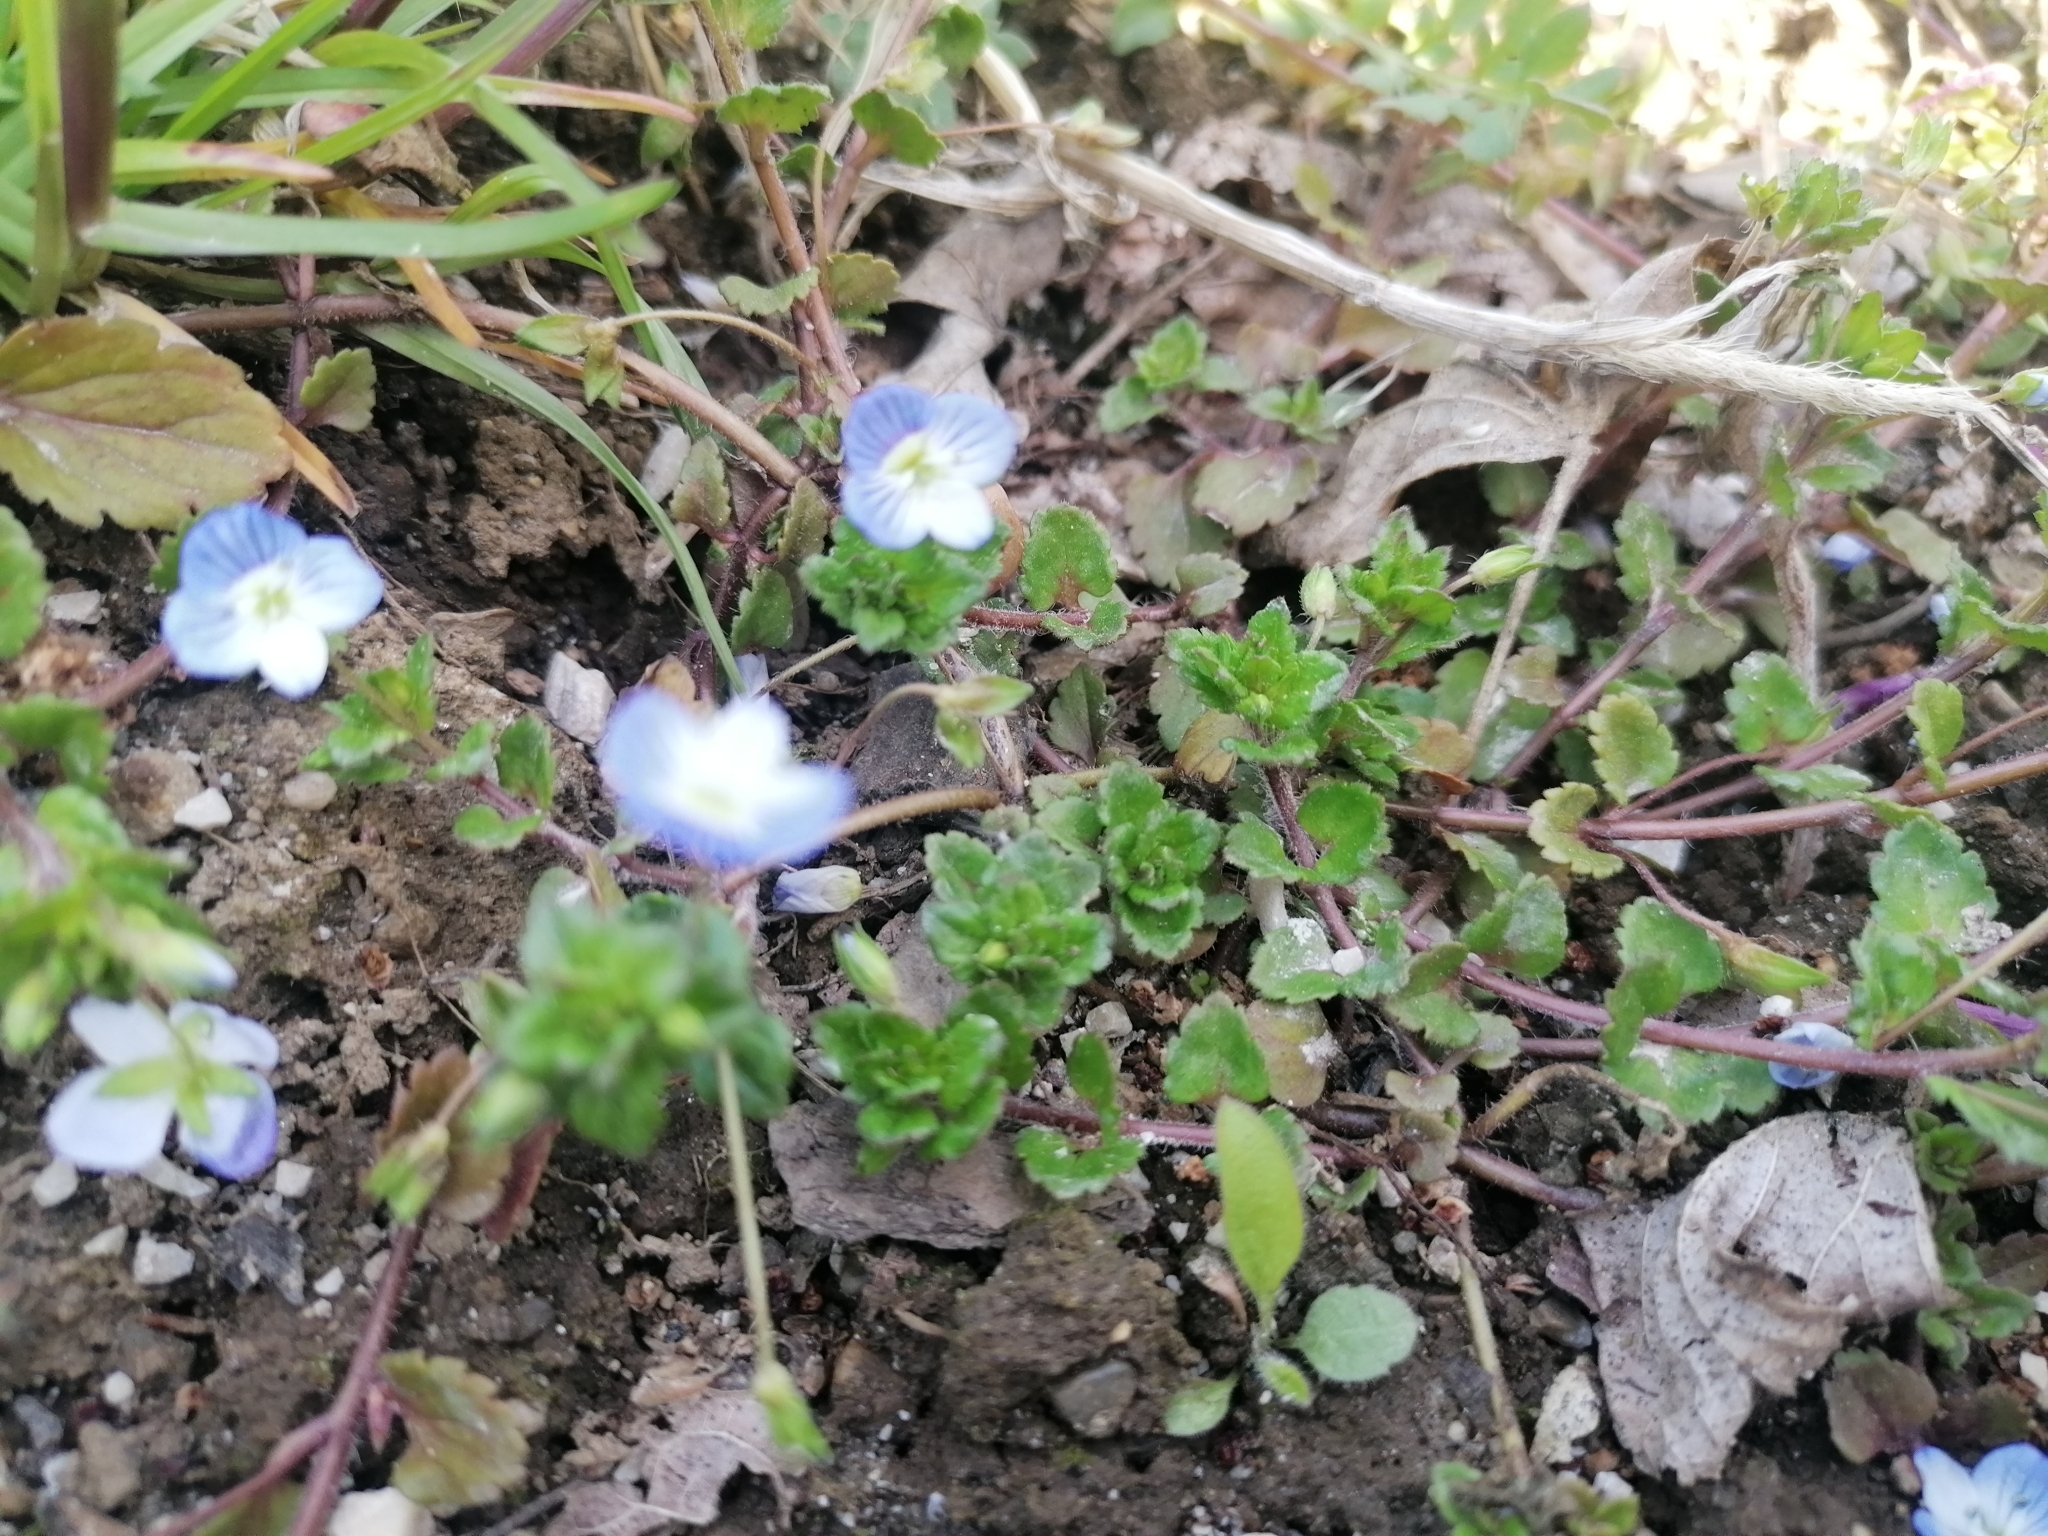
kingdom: Plantae
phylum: Tracheophyta
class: Magnoliopsida
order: Lamiales
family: Plantaginaceae
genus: Veronica
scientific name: Veronica persica
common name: Common field-speedwell
